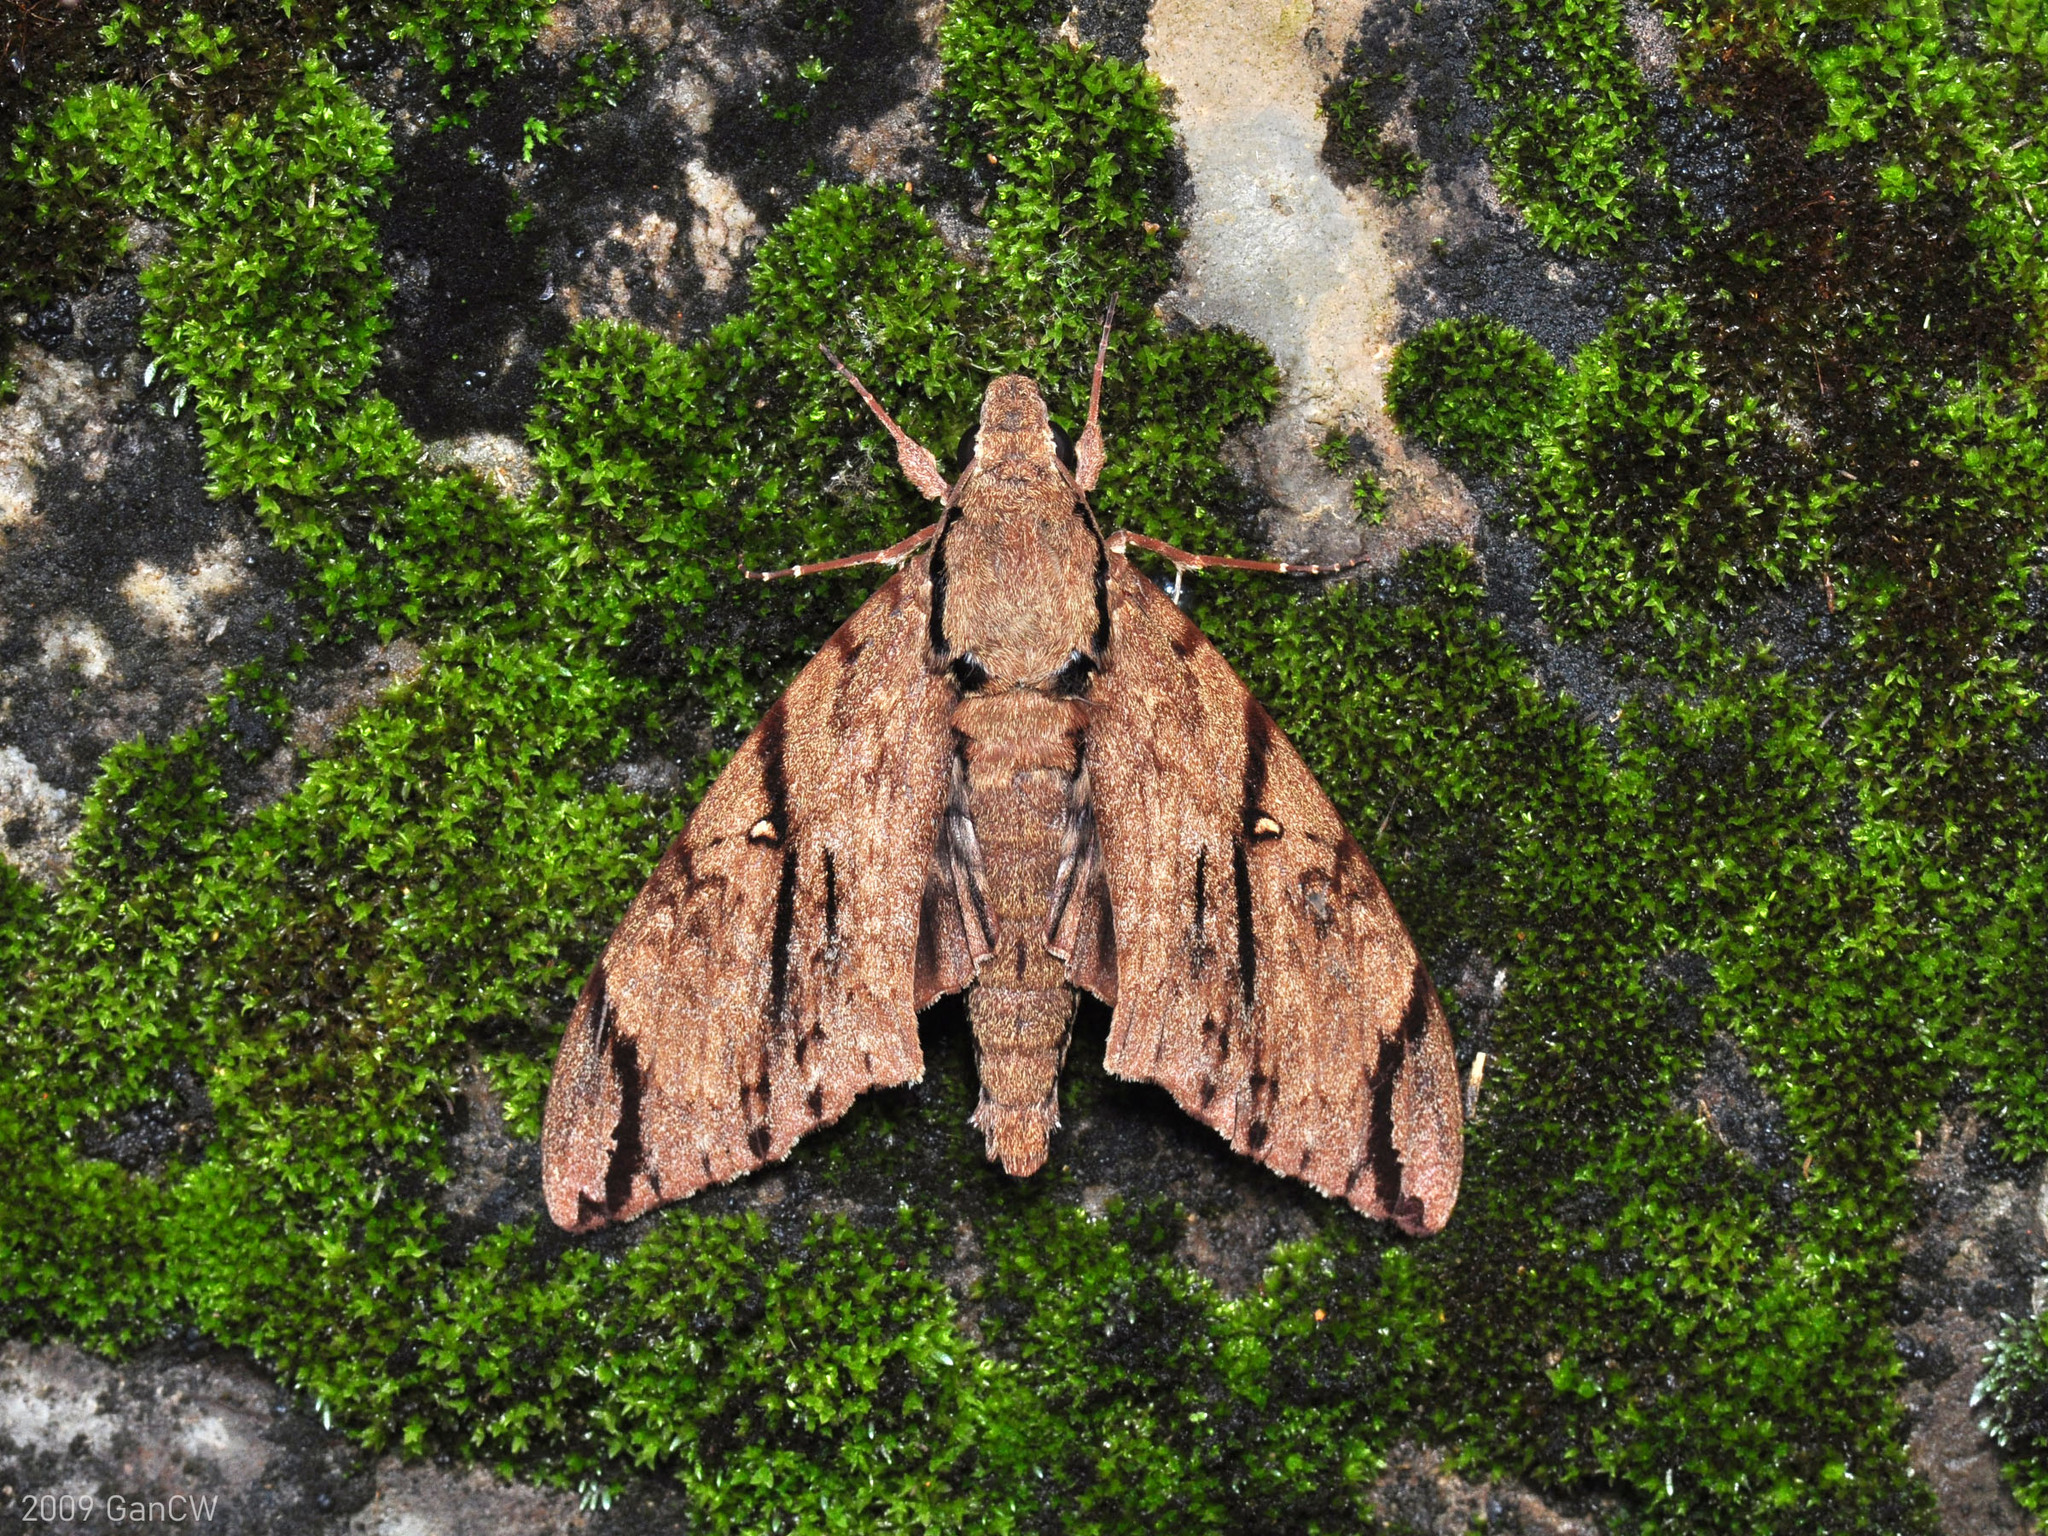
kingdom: Animalia
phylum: Arthropoda
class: Insecta
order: Lepidoptera
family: Sphingidae
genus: Cerberonoton
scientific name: Cerberonoton rubescens
